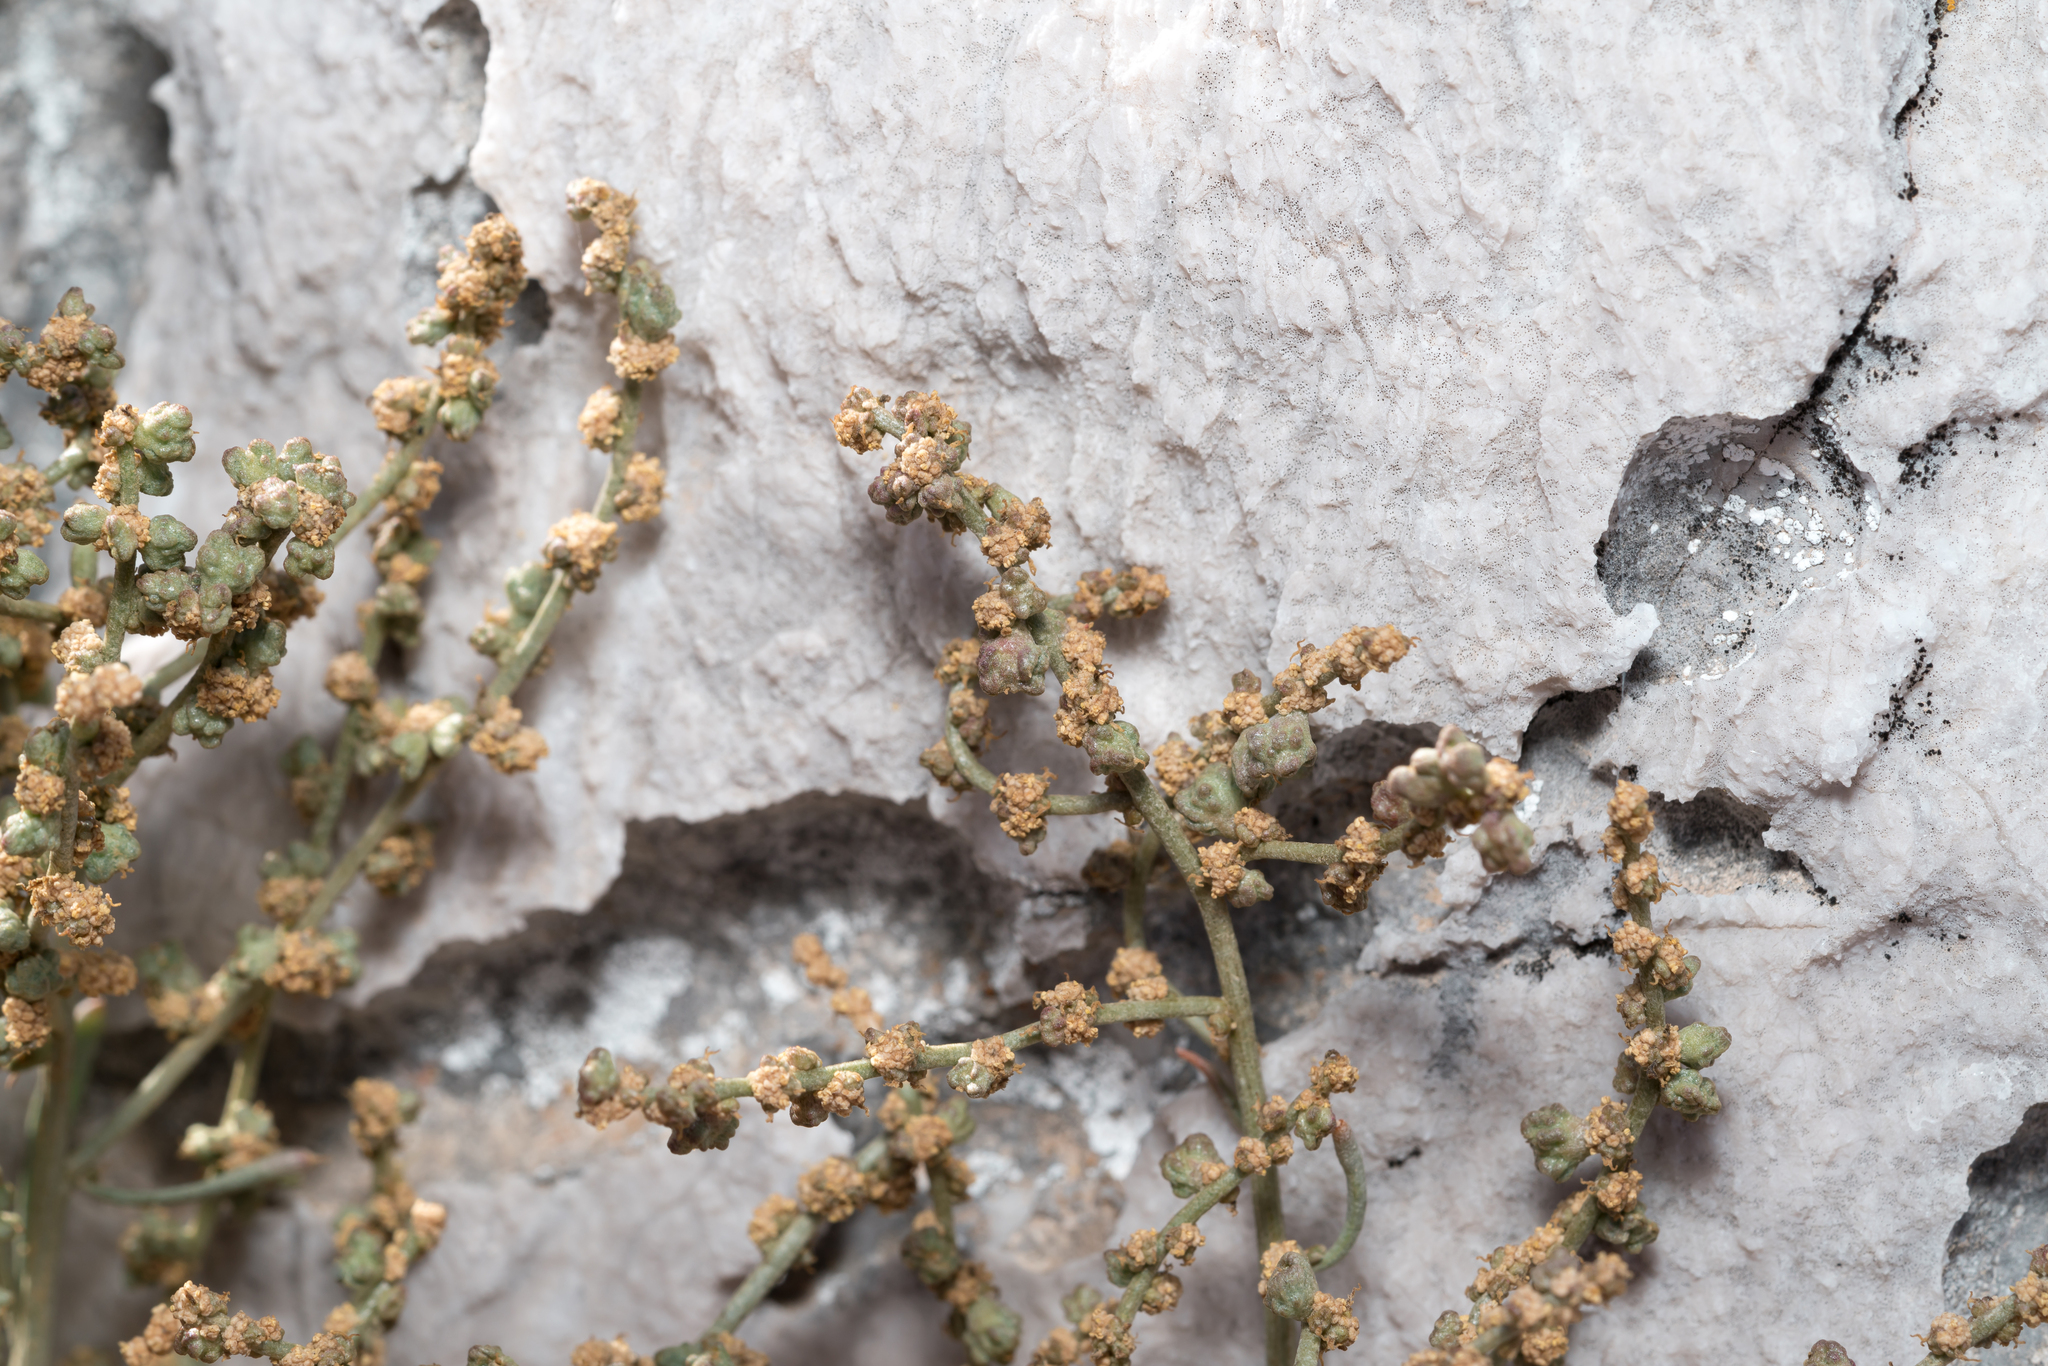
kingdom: Plantae
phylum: Tracheophyta
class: Magnoliopsida
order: Caryophyllales
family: Amaranthaceae
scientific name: Amaranthaceae
